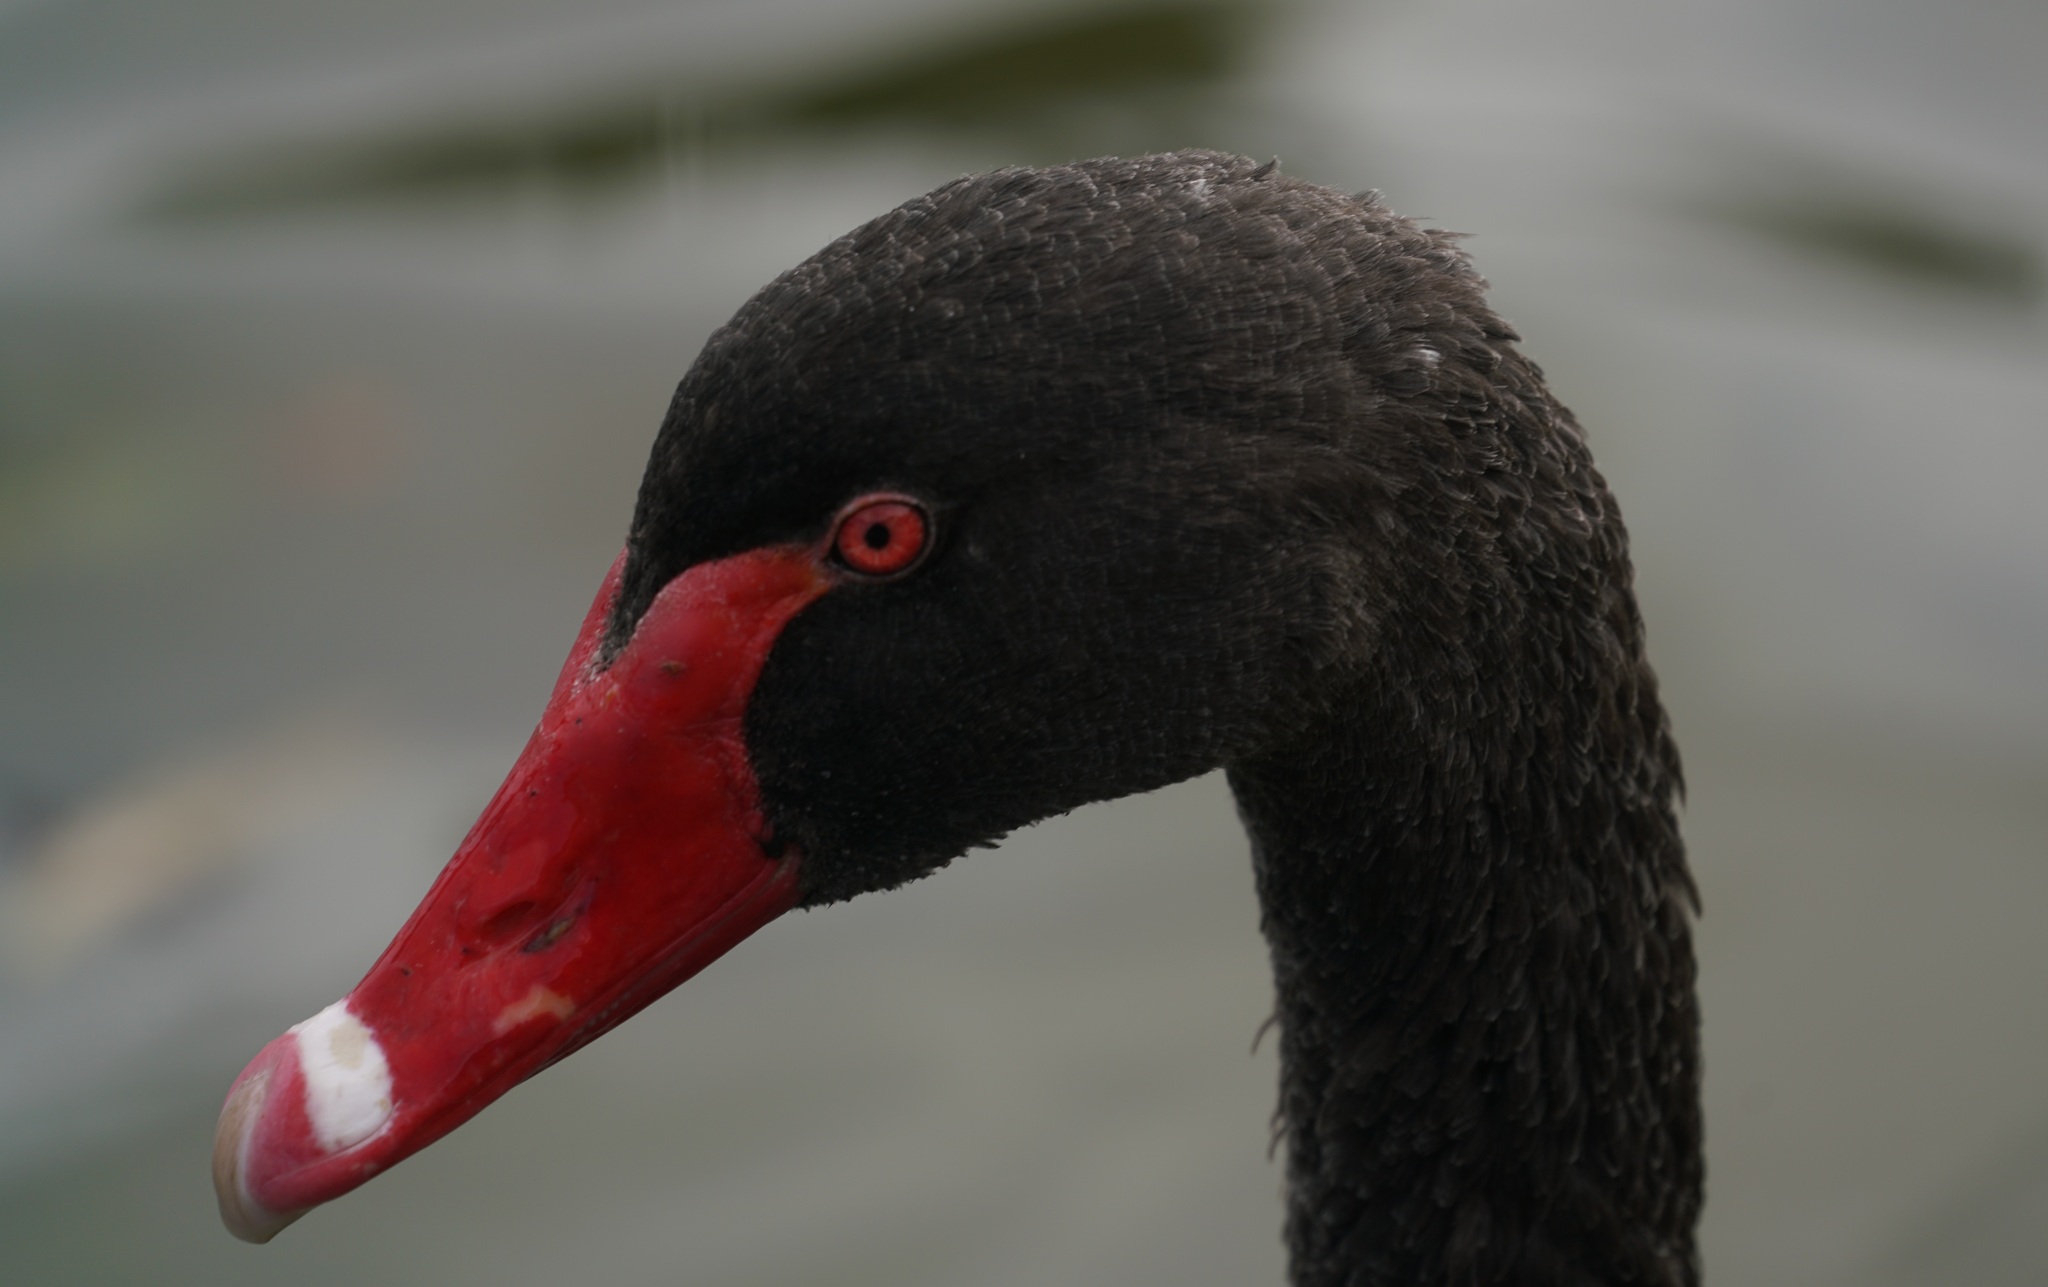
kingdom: Animalia
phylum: Chordata
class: Aves
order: Anseriformes
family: Anatidae
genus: Cygnus
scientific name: Cygnus atratus
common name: Black swan
